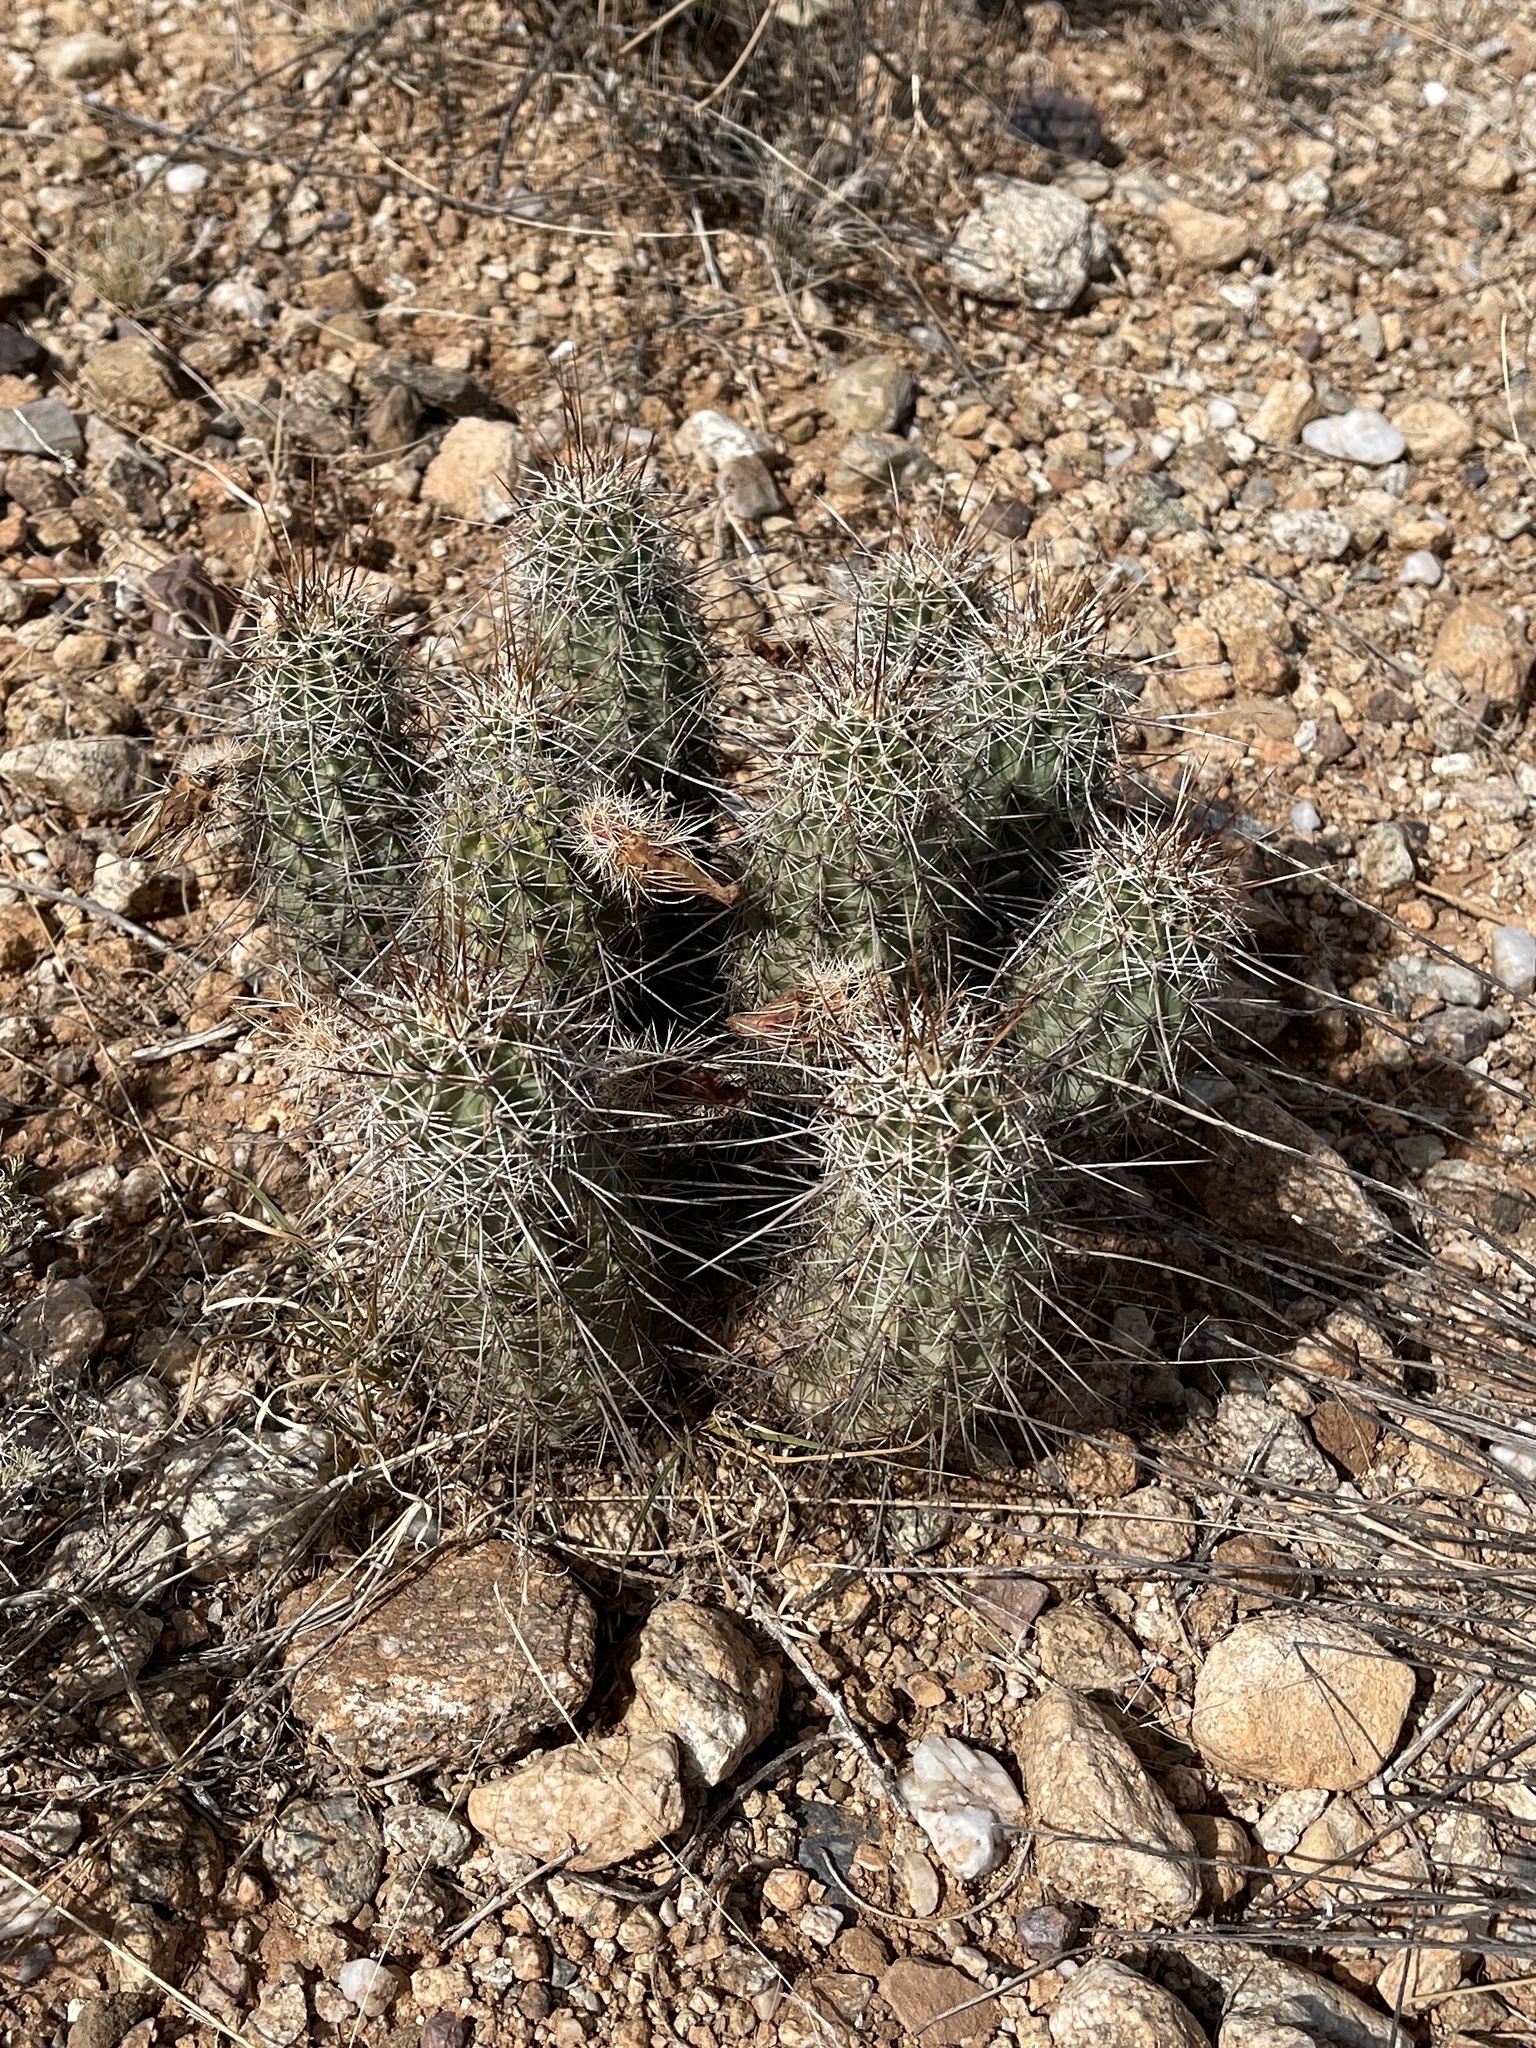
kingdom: Plantae
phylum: Tracheophyta
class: Magnoliopsida
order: Caryophyllales
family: Cactaceae
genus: Echinocereus
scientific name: Echinocereus fasciculatus
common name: Bundle hedgehog
